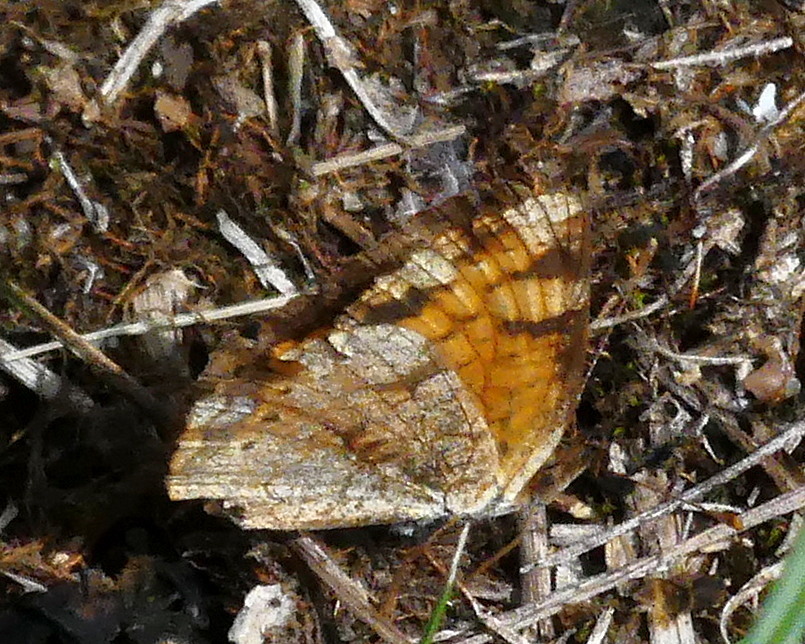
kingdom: Animalia
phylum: Arthropoda
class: Insecta
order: Lepidoptera
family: Nymphalidae
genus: Phyciodes
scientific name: Phyciodes tharos
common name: Pearl crescent
